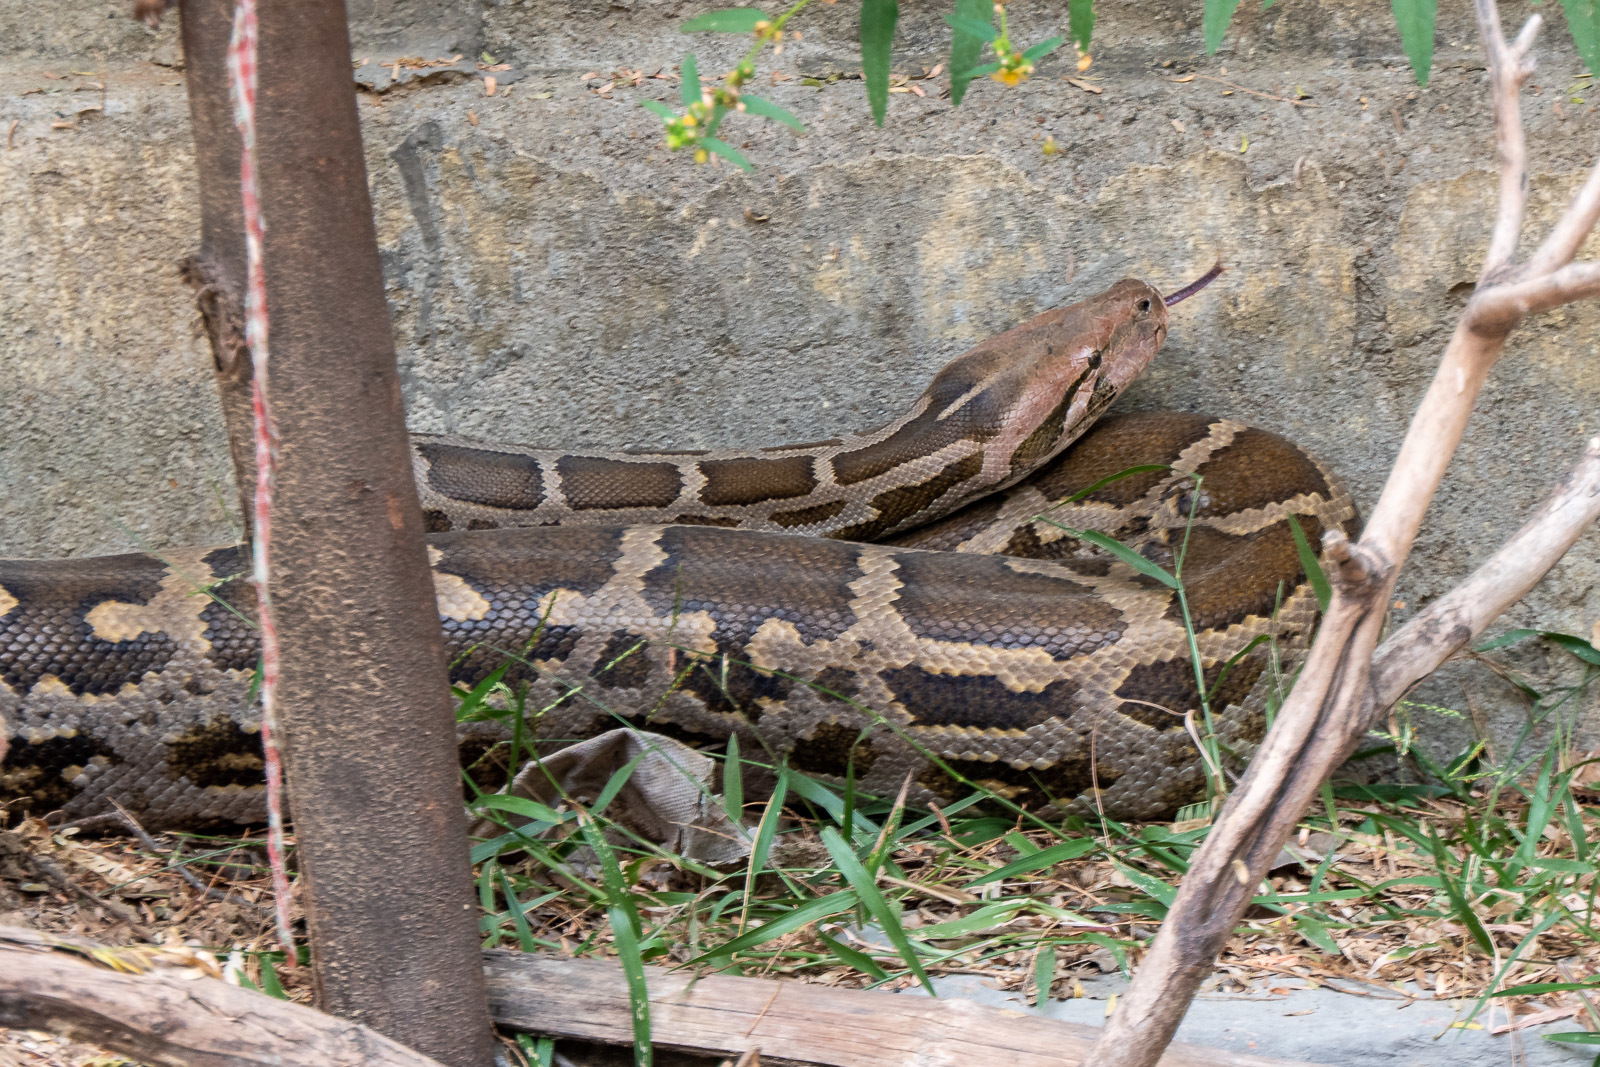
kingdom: Animalia
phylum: Chordata
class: Squamata
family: Pythonidae
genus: Python
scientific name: Python molurus
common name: Indian rock python
